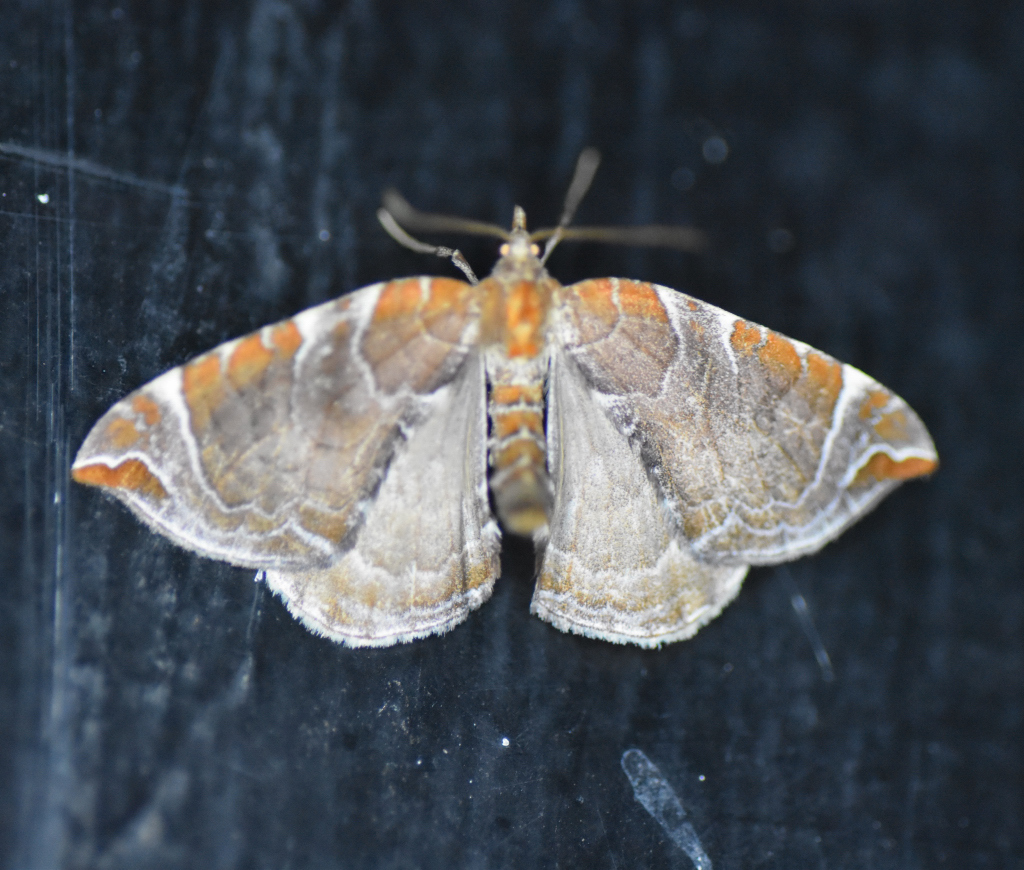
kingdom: Animalia
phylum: Arthropoda
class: Insecta
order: Lepidoptera
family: Geometridae
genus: Eulithis
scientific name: Eulithis molliculata
